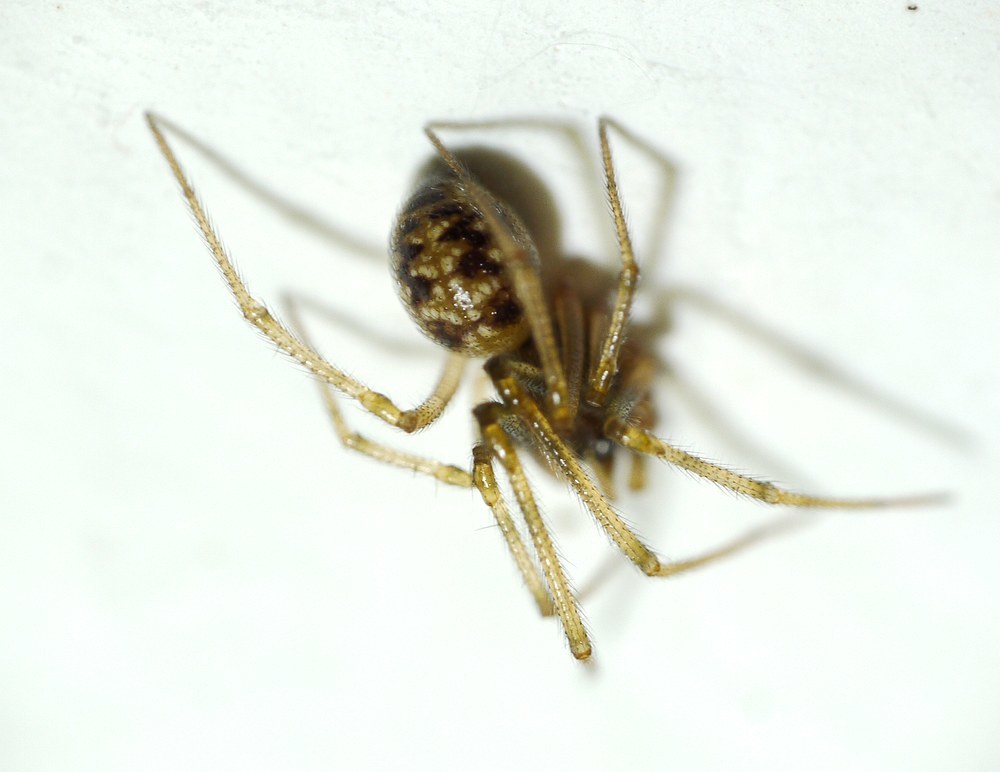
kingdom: Animalia
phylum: Arthropoda
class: Arachnida
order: Araneae
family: Theridiidae
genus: Steatoda
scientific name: Steatoda triangulosa
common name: Triangulate bud spider
